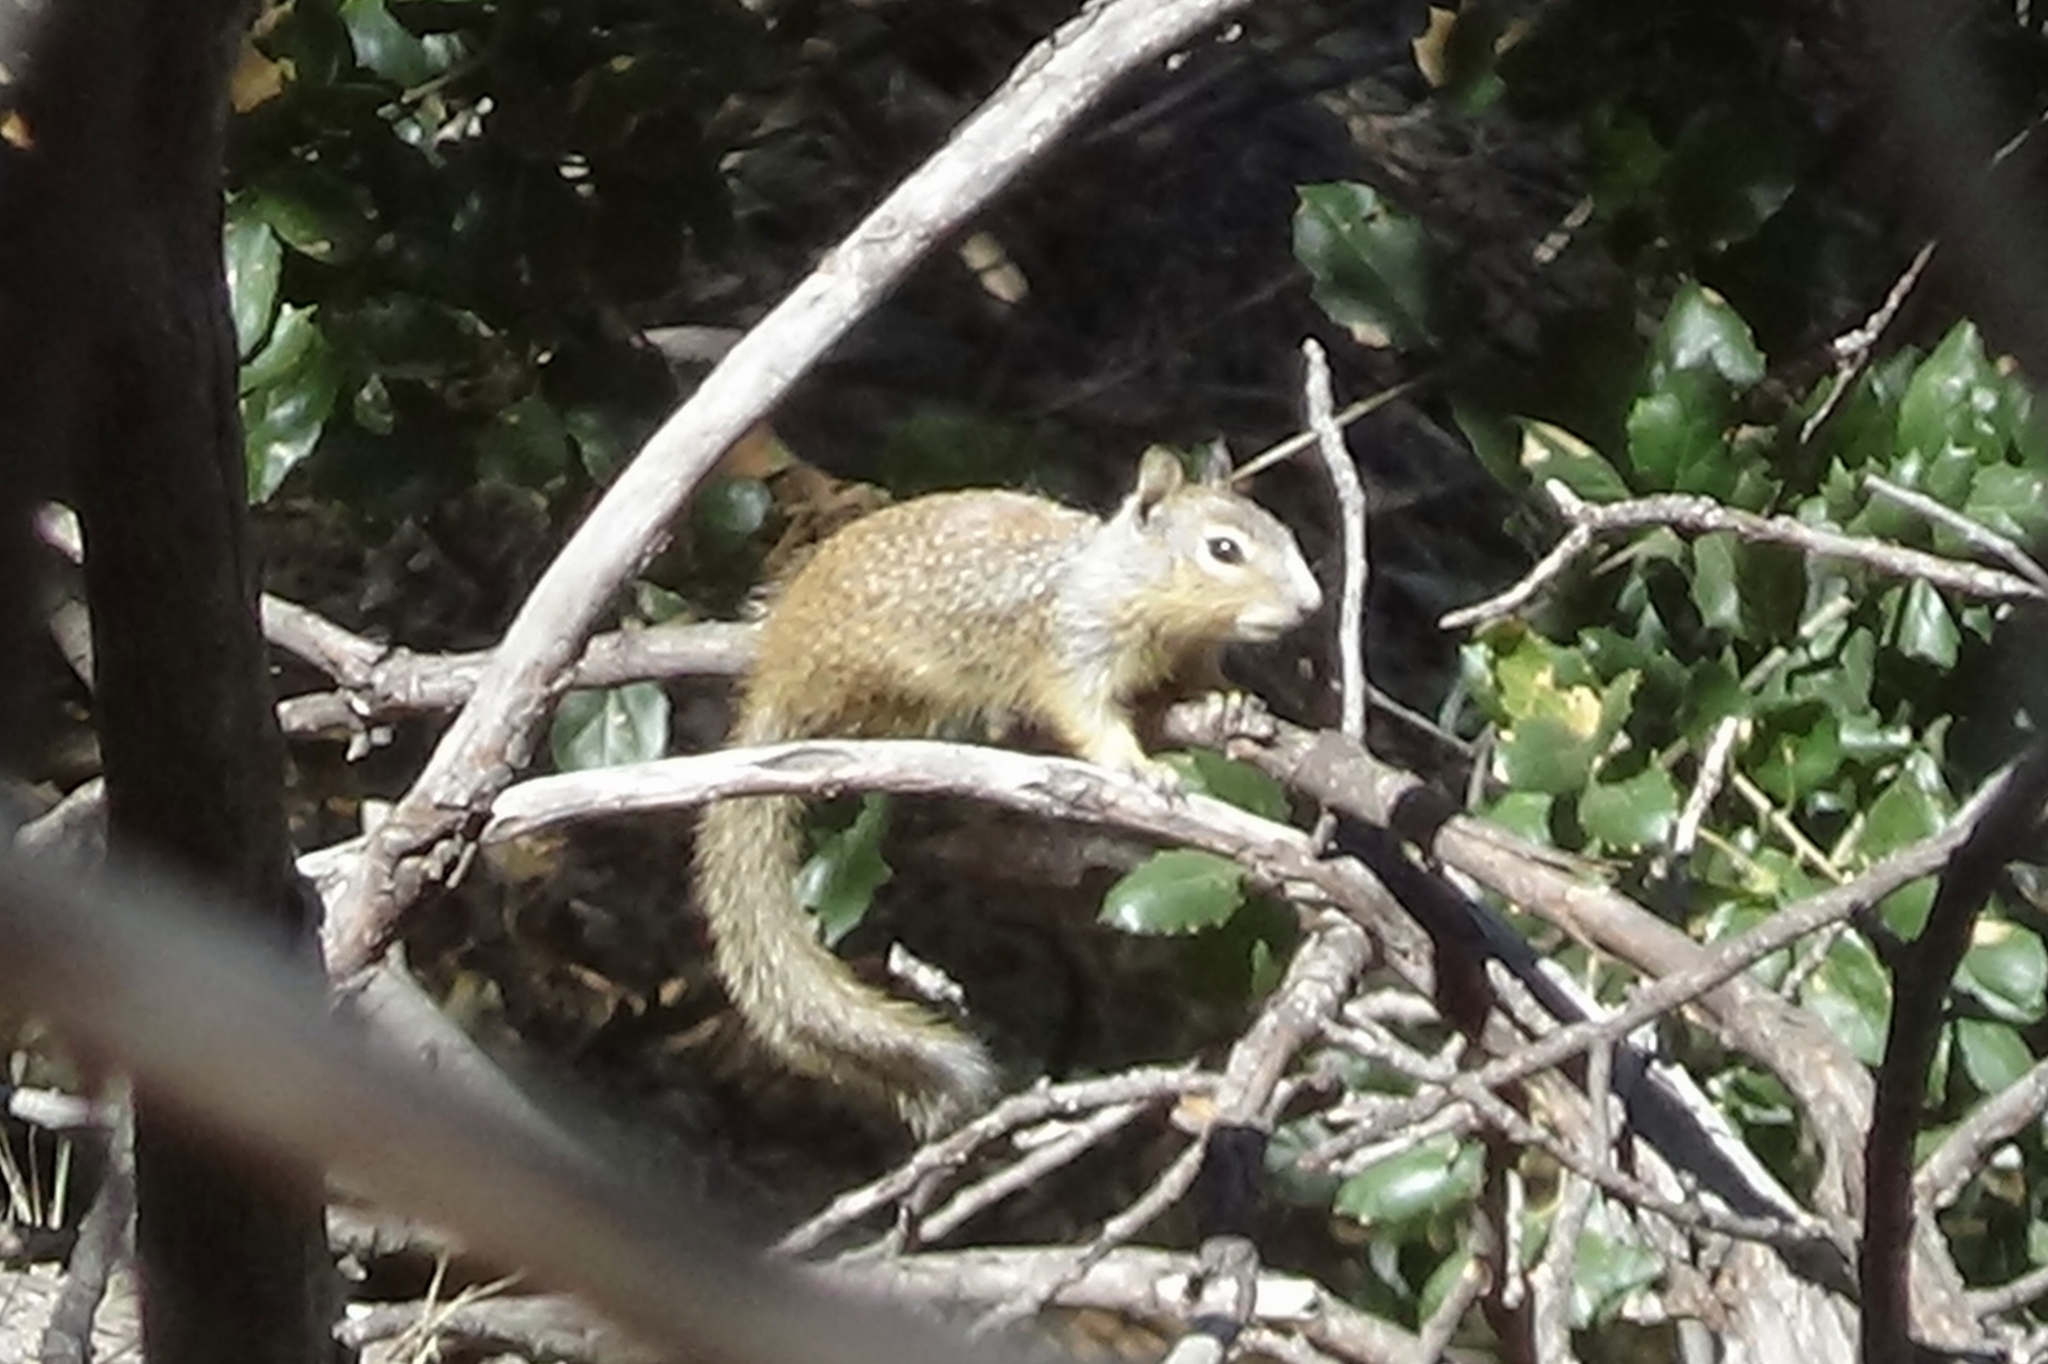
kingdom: Animalia
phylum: Chordata
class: Mammalia
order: Rodentia
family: Sciuridae
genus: Otospermophilus
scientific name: Otospermophilus beecheyi
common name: California ground squirrel
